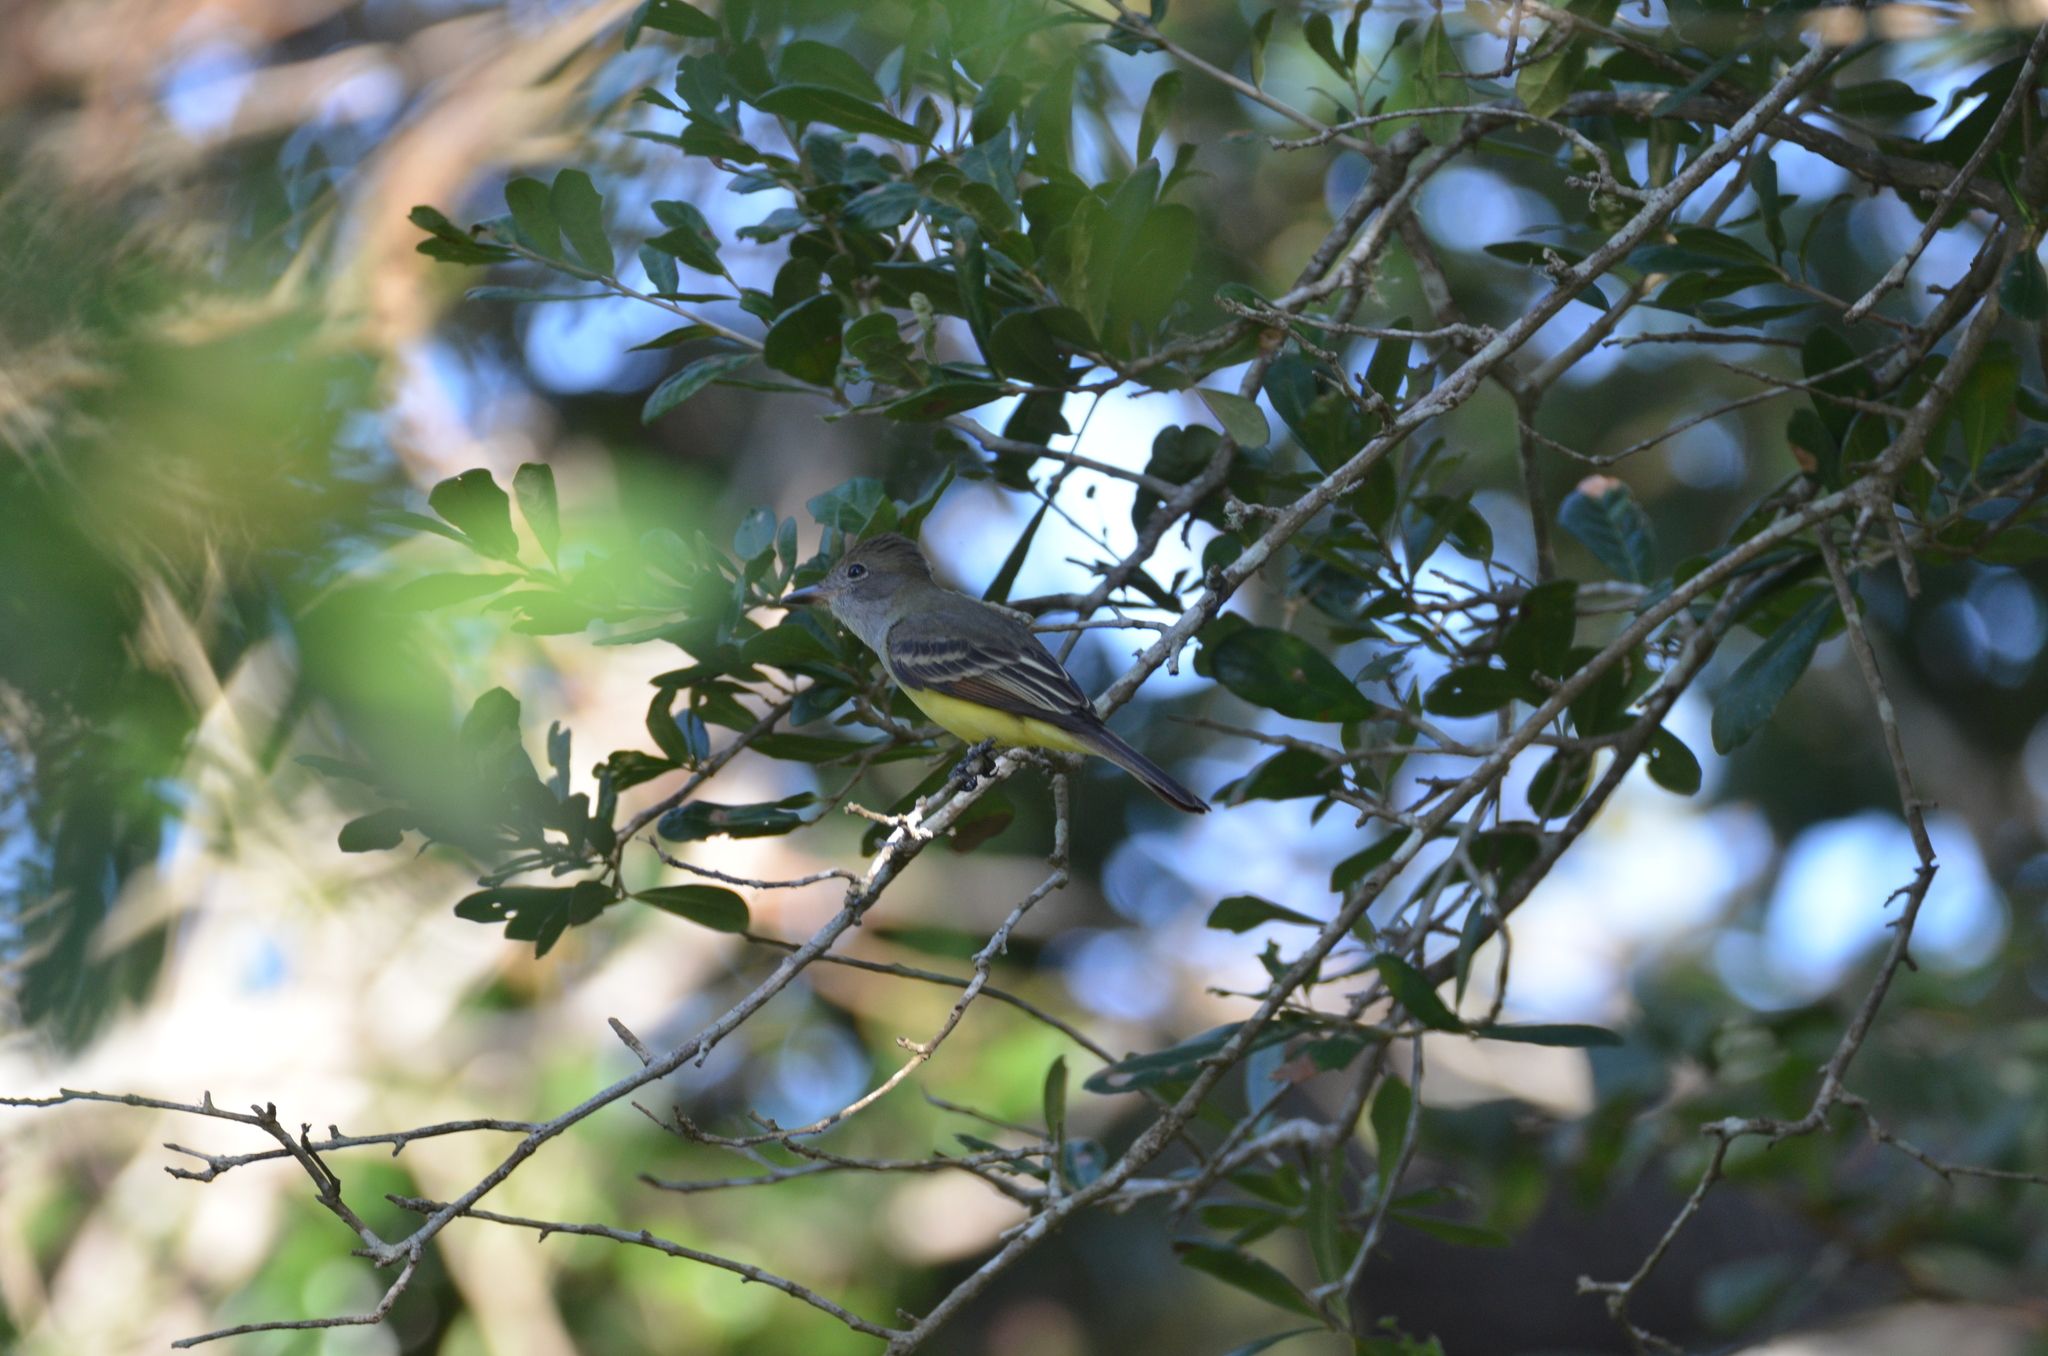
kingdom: Animalia
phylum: Chordata
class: Aves
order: Passeriformes
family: Tyrannidae
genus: Myiarchus
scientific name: Myiarchus crinitus
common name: Great crested flycatcher
